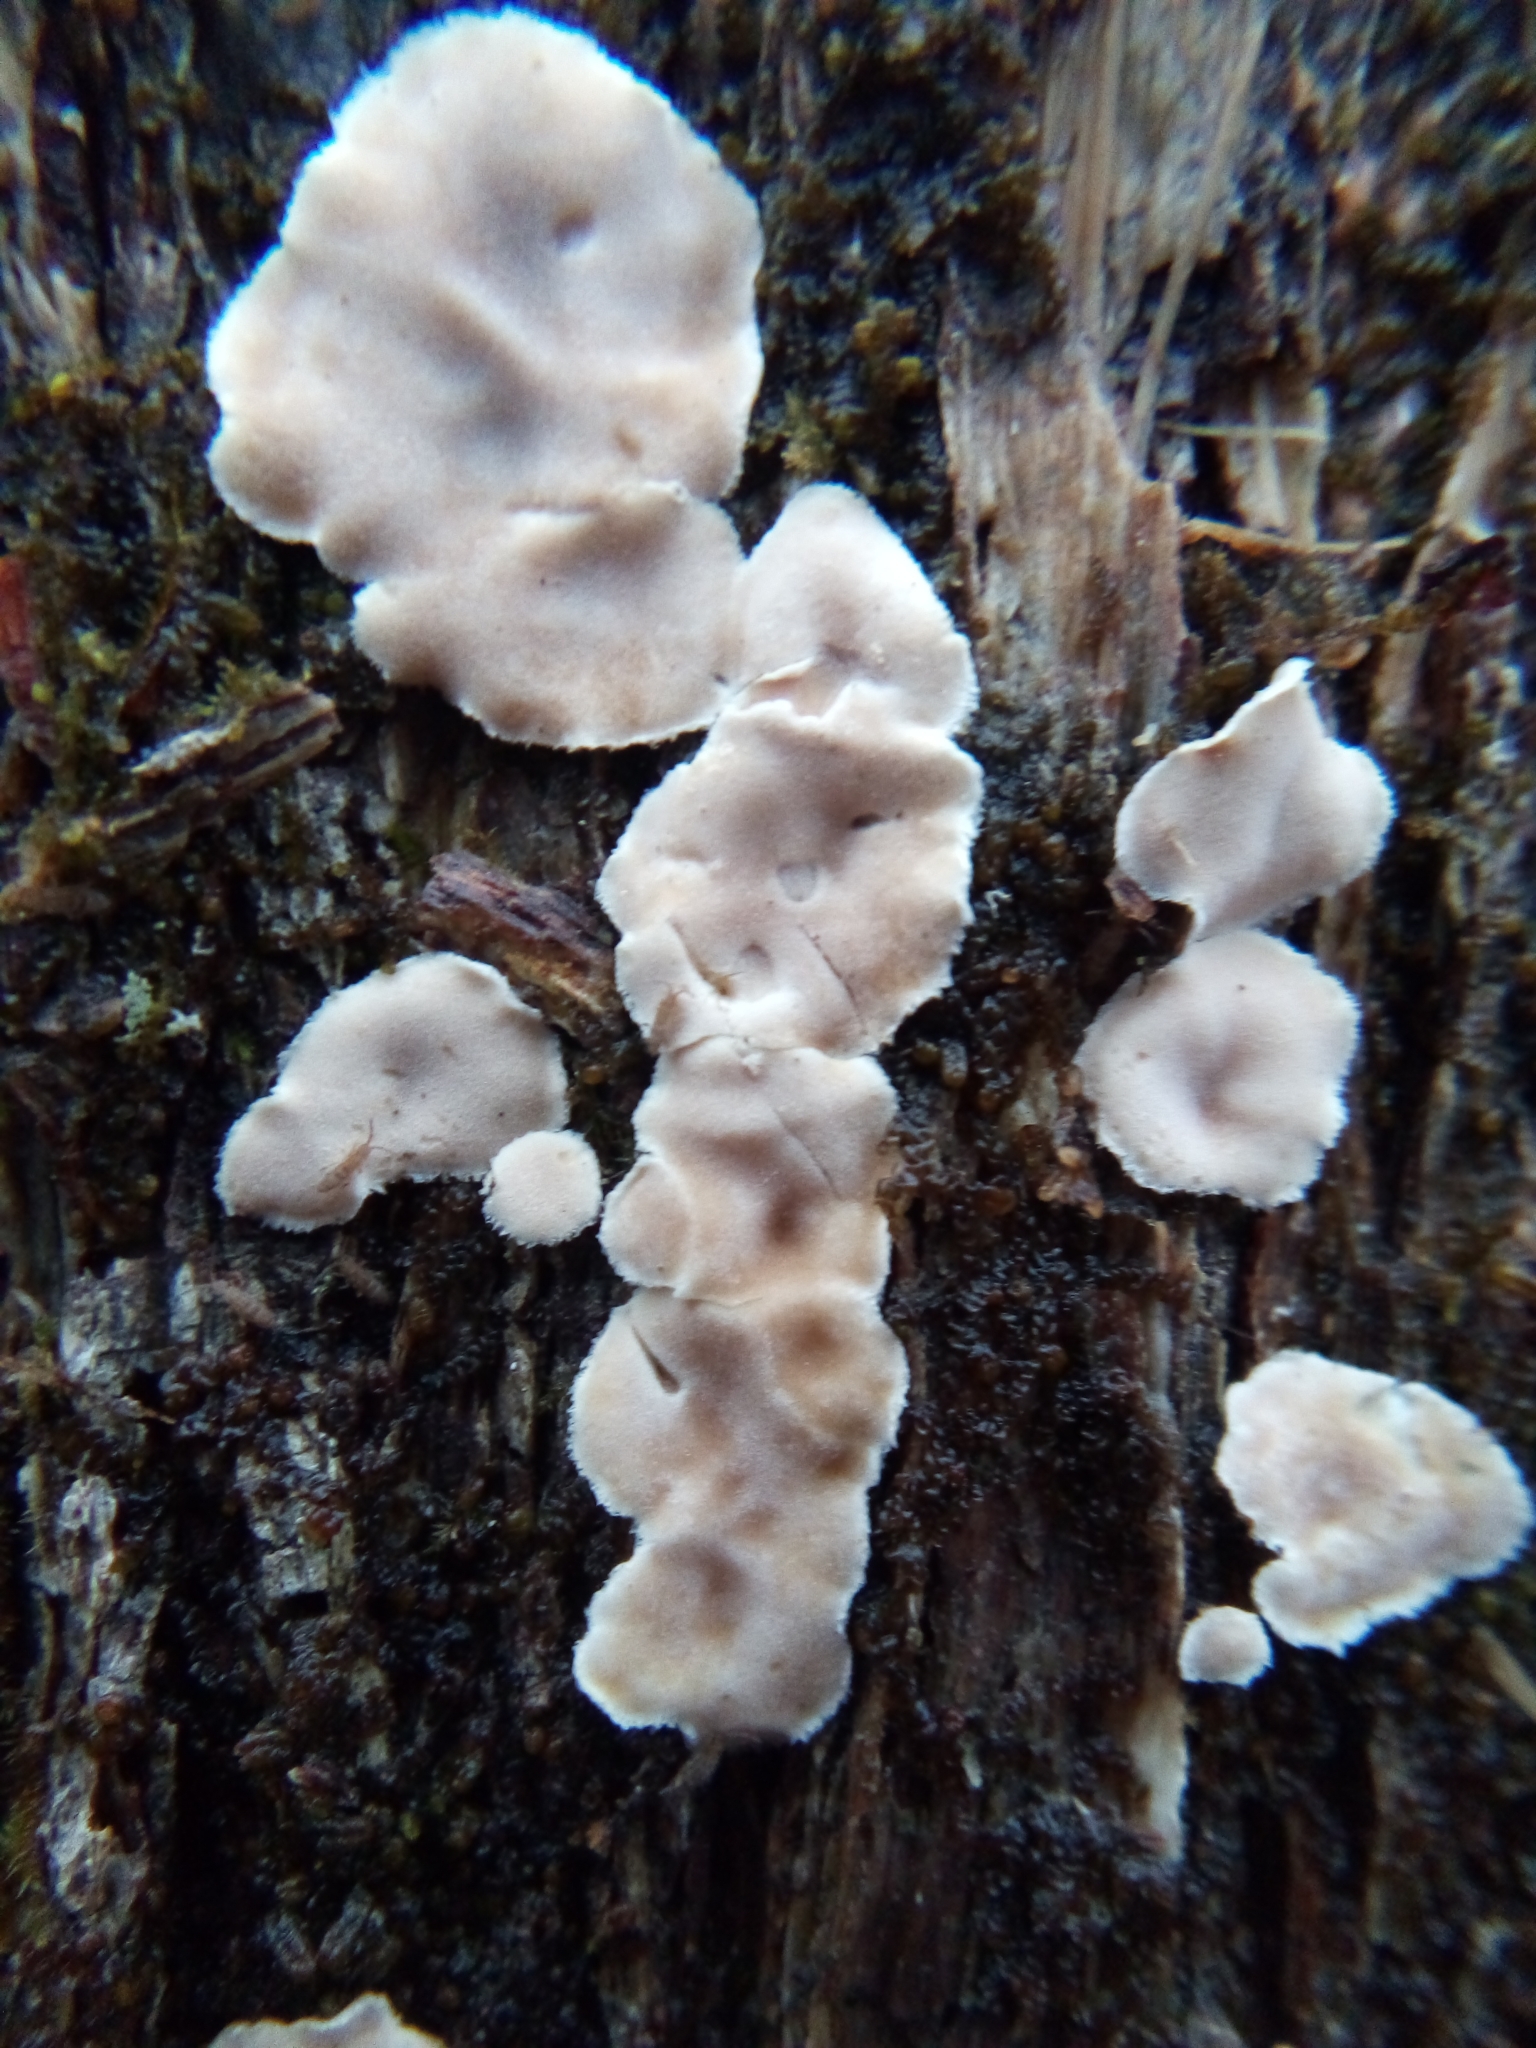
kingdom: Fungi
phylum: Basidiomycota
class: Agaricomycetes
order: Russulales
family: Stereaceae
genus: Acanthophysium
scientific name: Acanthophysium oakesii
